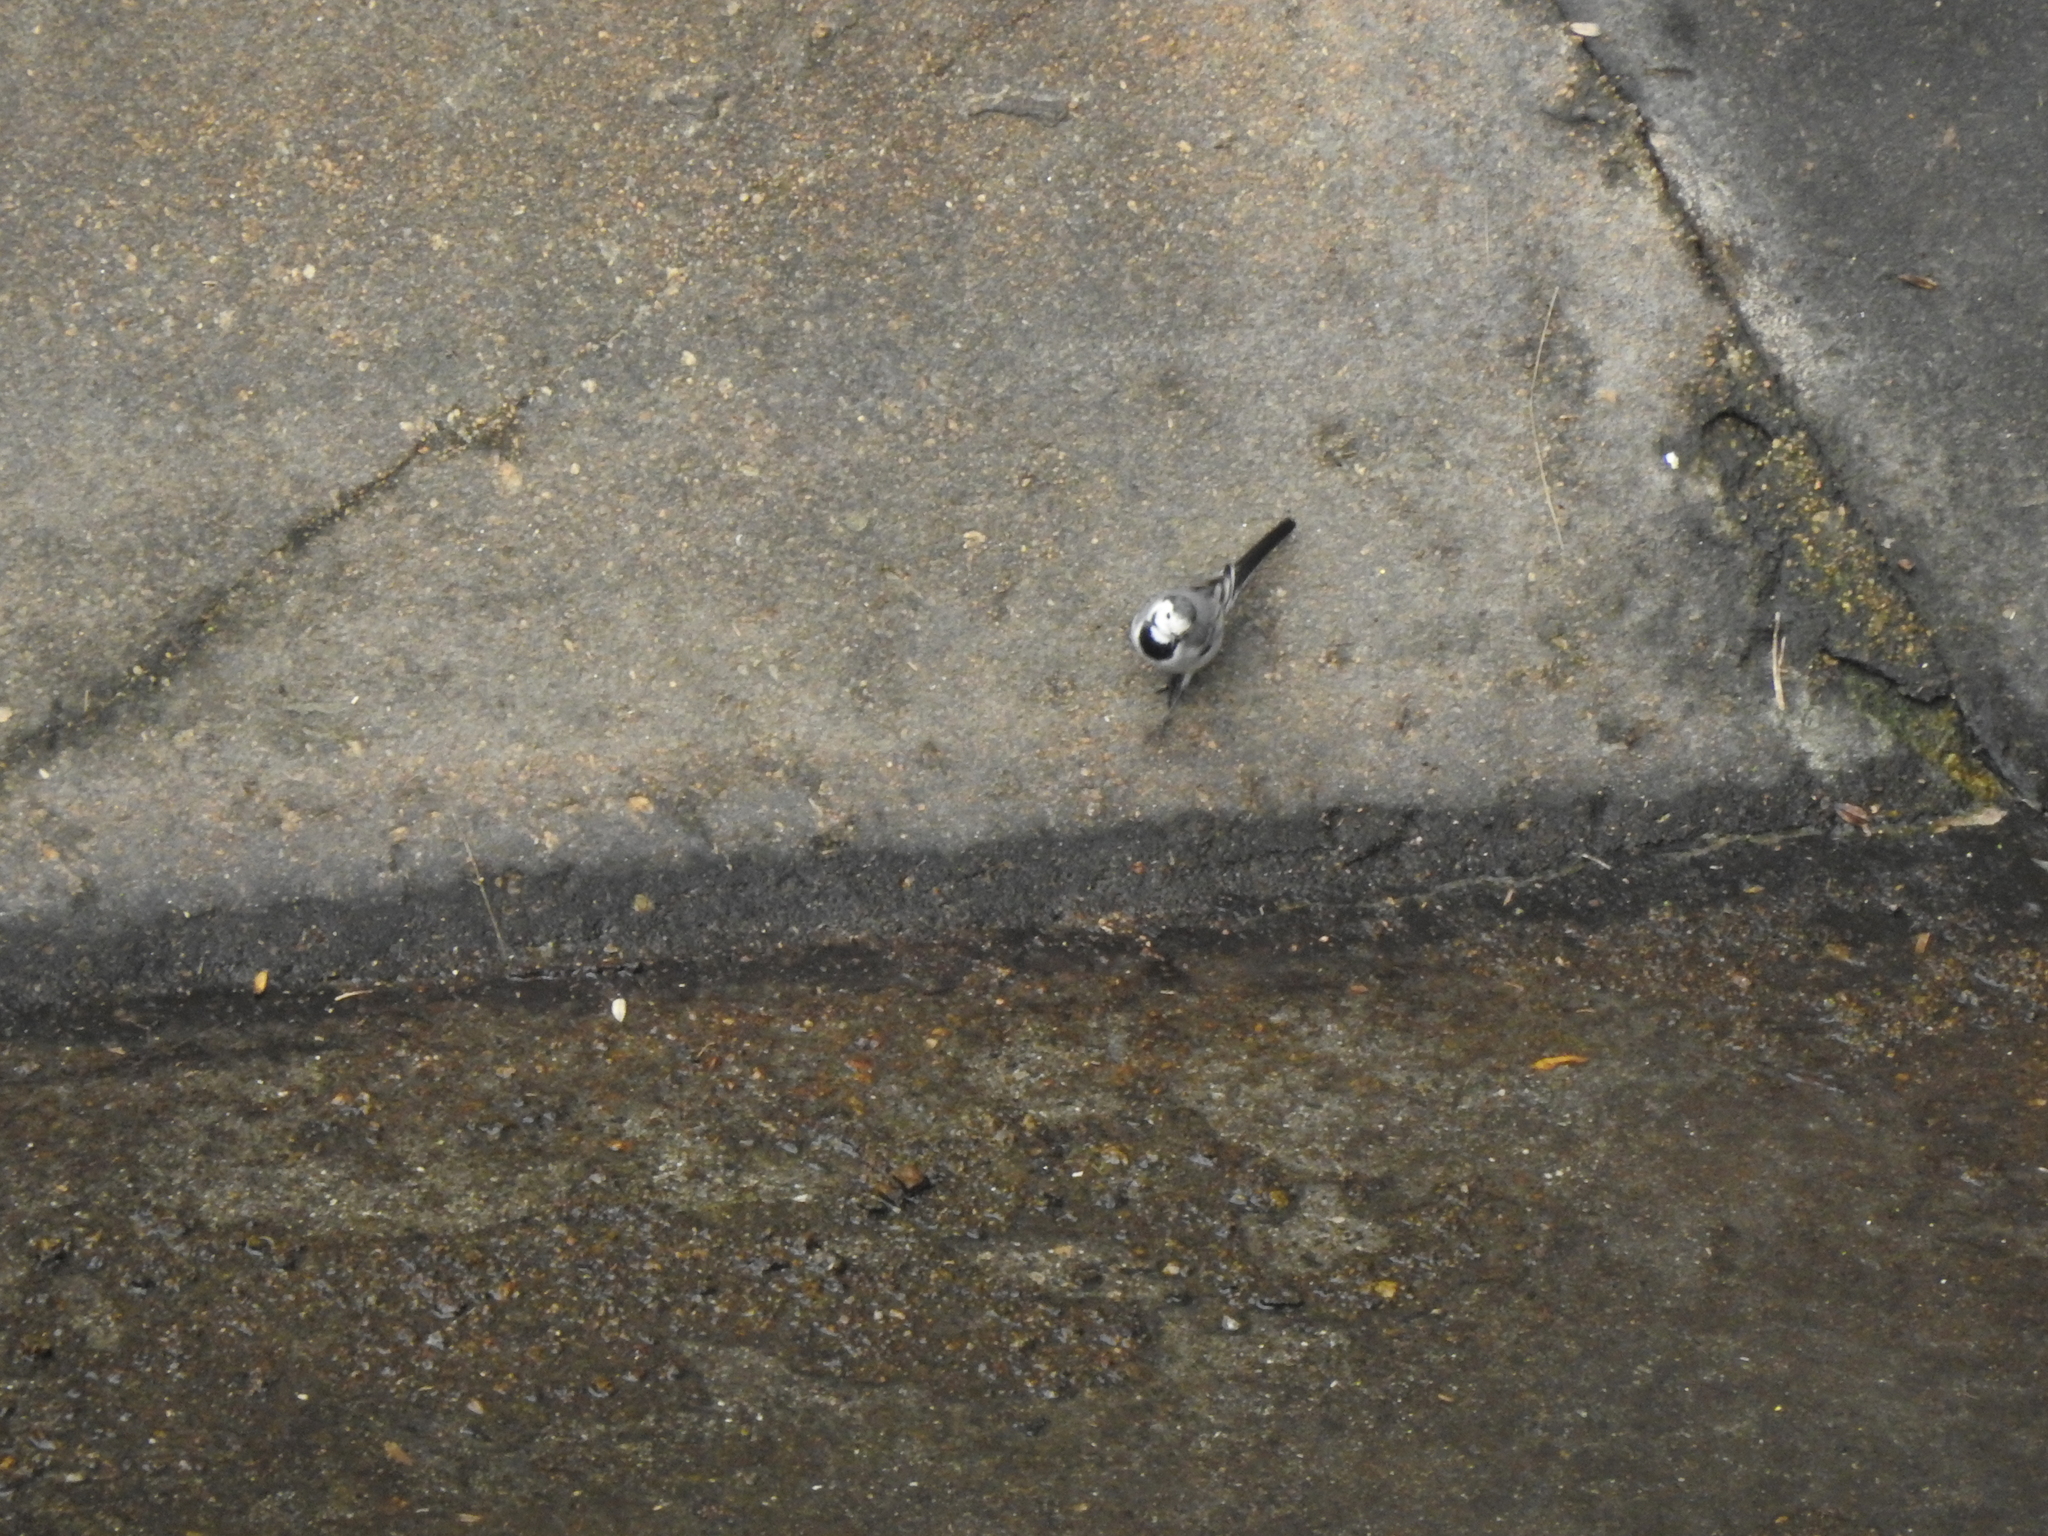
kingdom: Animalia
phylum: Chordata
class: Aves
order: Passeriformes
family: Motacillidae
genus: Motacilla
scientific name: Motacilla alba
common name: White wagtail
